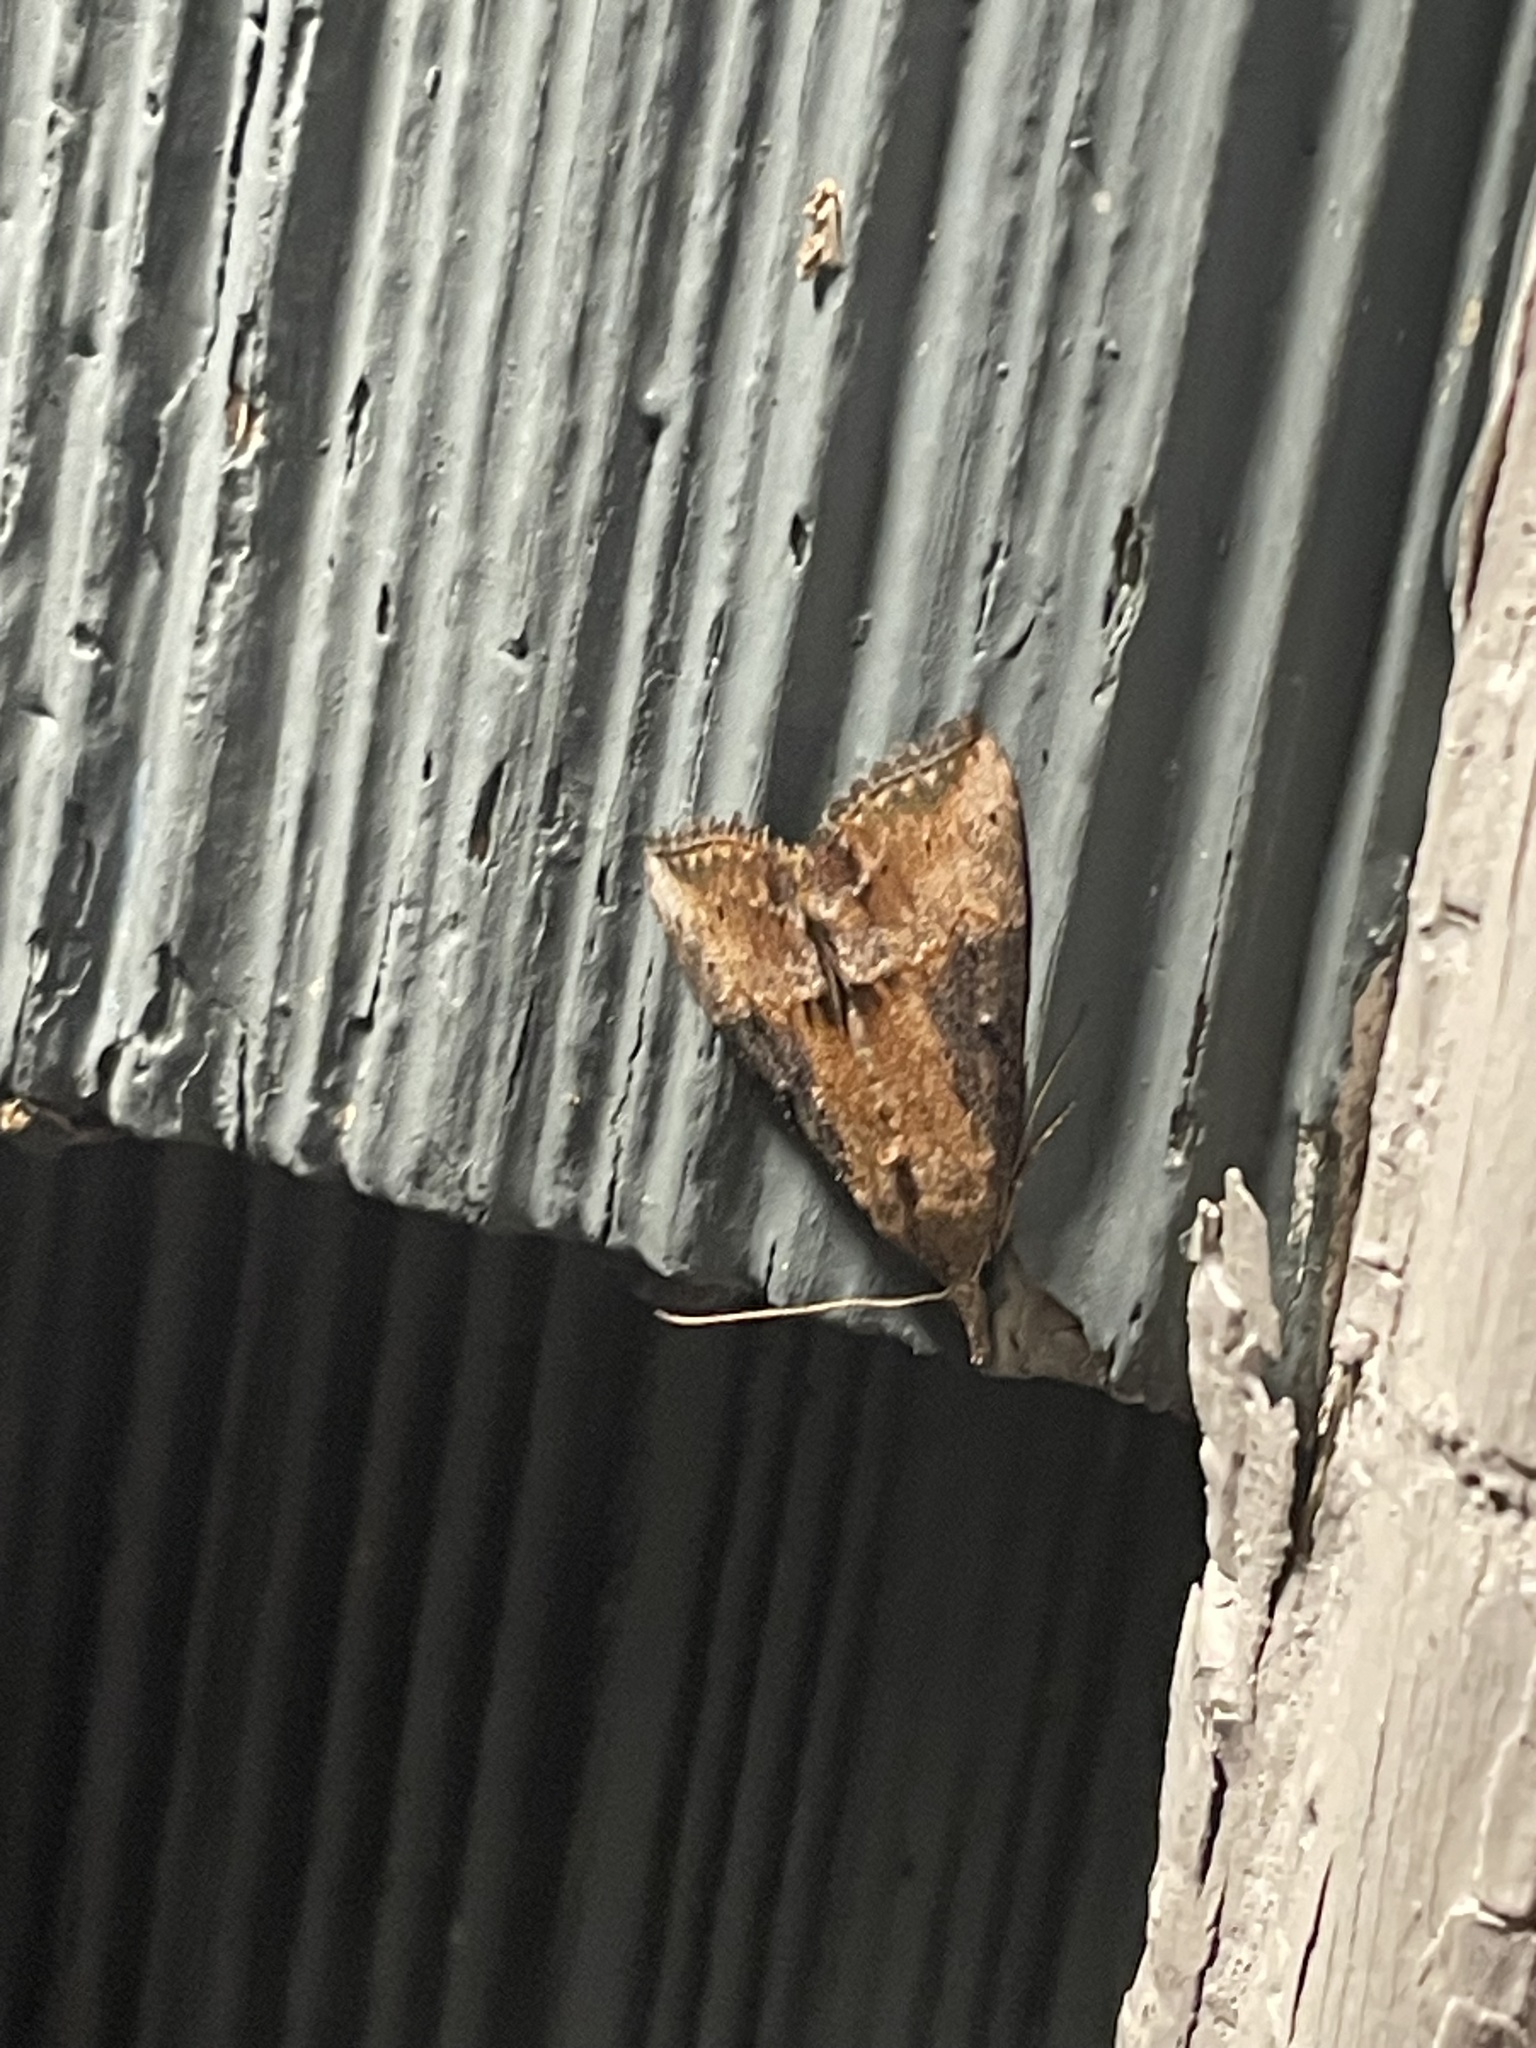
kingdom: Animalia
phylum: Arthropoda
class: Insecta
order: Lepidoptera
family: Erebidae
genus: Hypena
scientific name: Hypena scabra
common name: Green cloverworm
